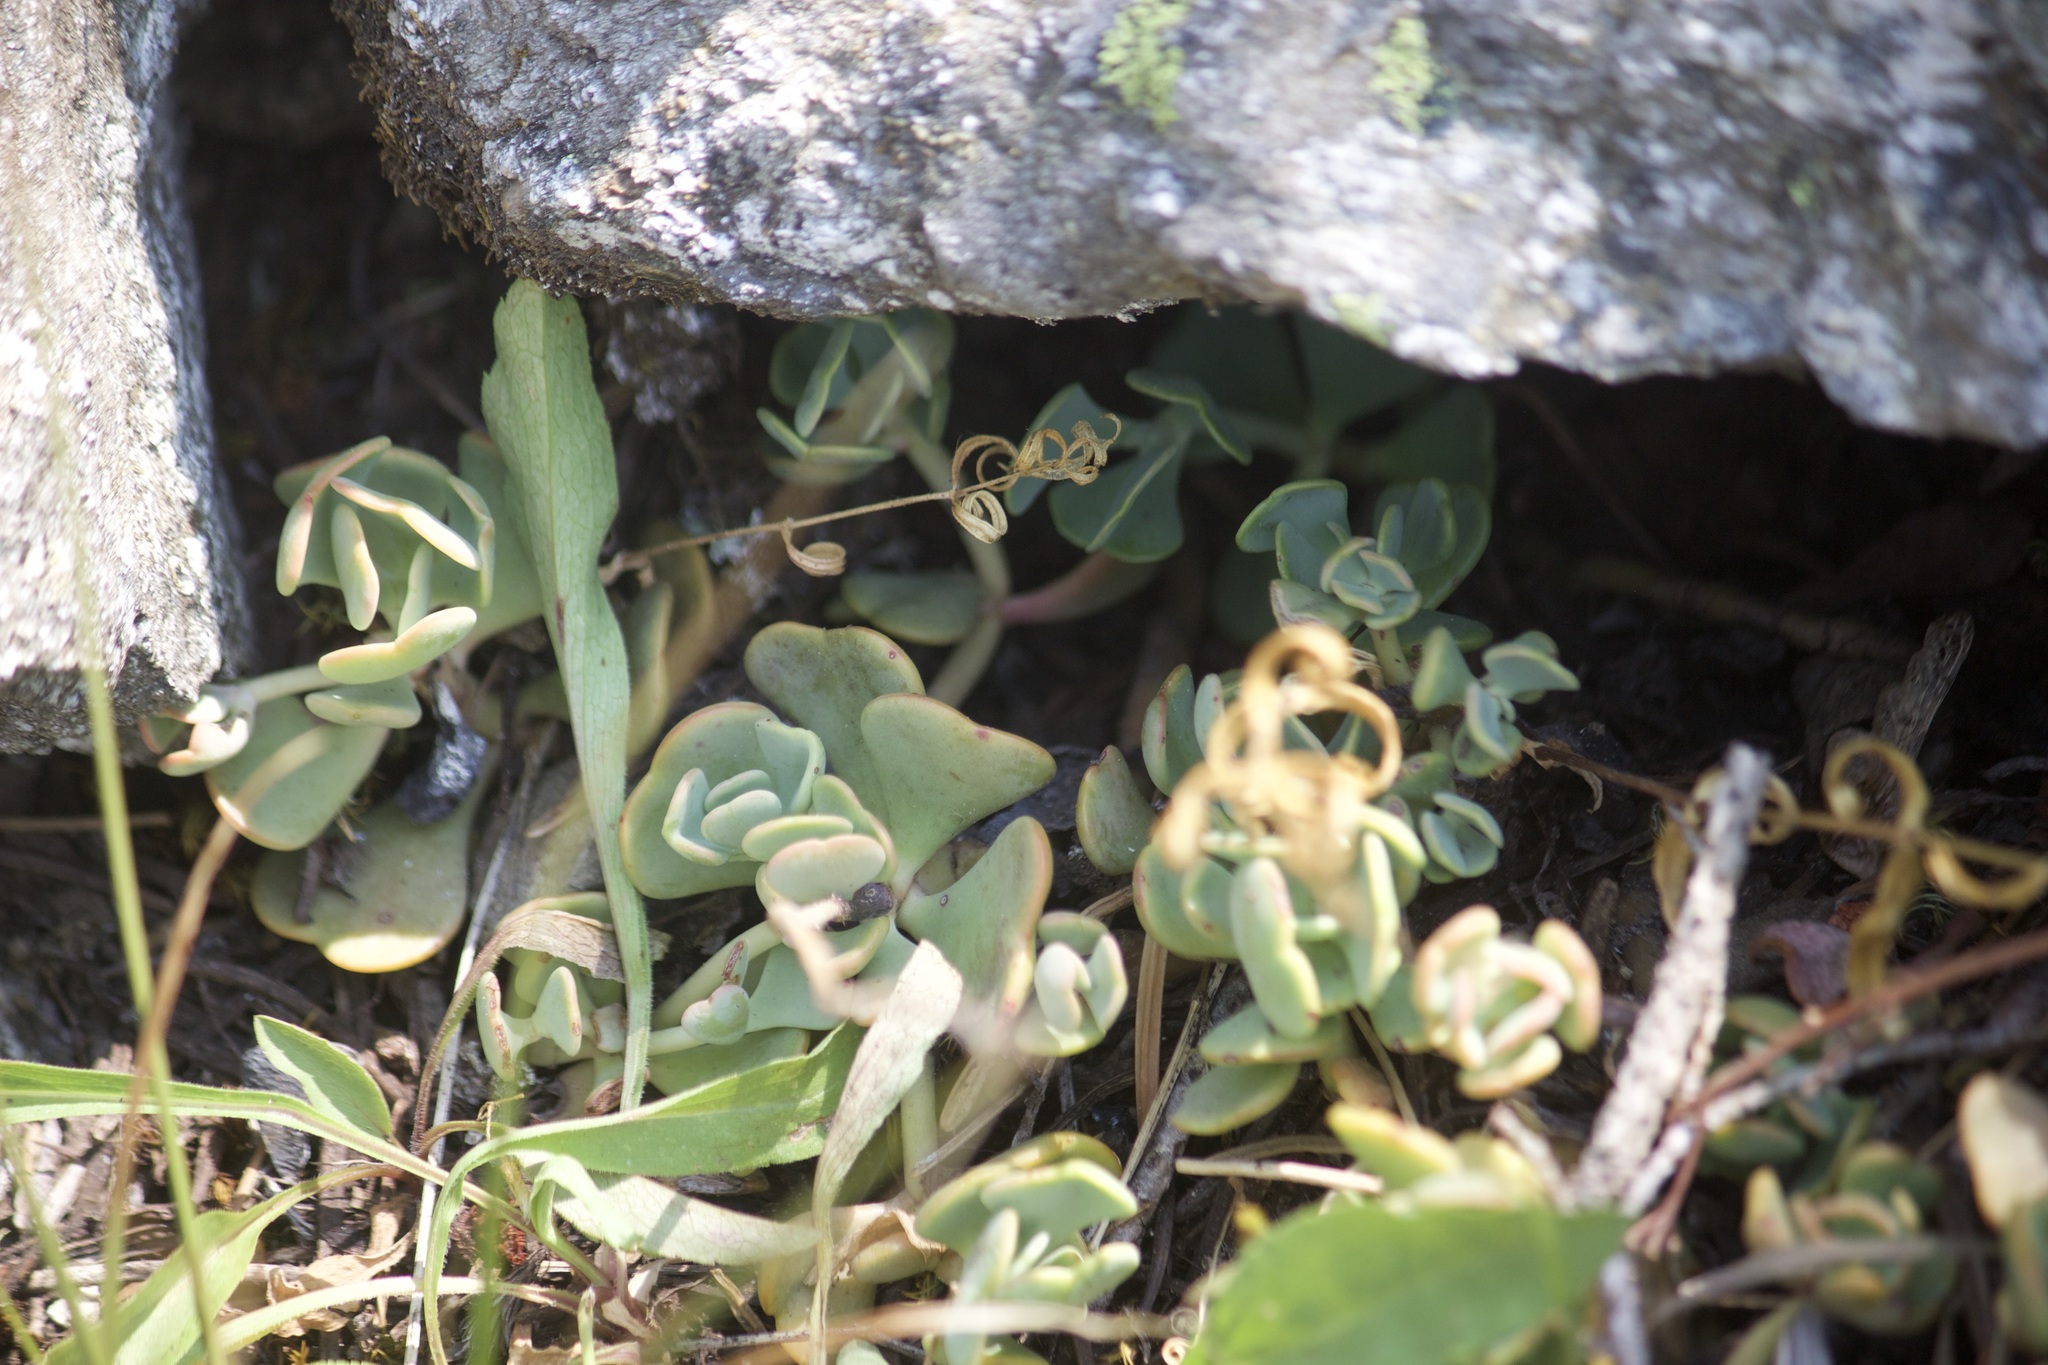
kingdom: Plantae
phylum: Tracheophyta
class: Magnoliopsida
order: Saxifragales
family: Crassulaceae
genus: Sedum
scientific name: Sedum obtusatum
